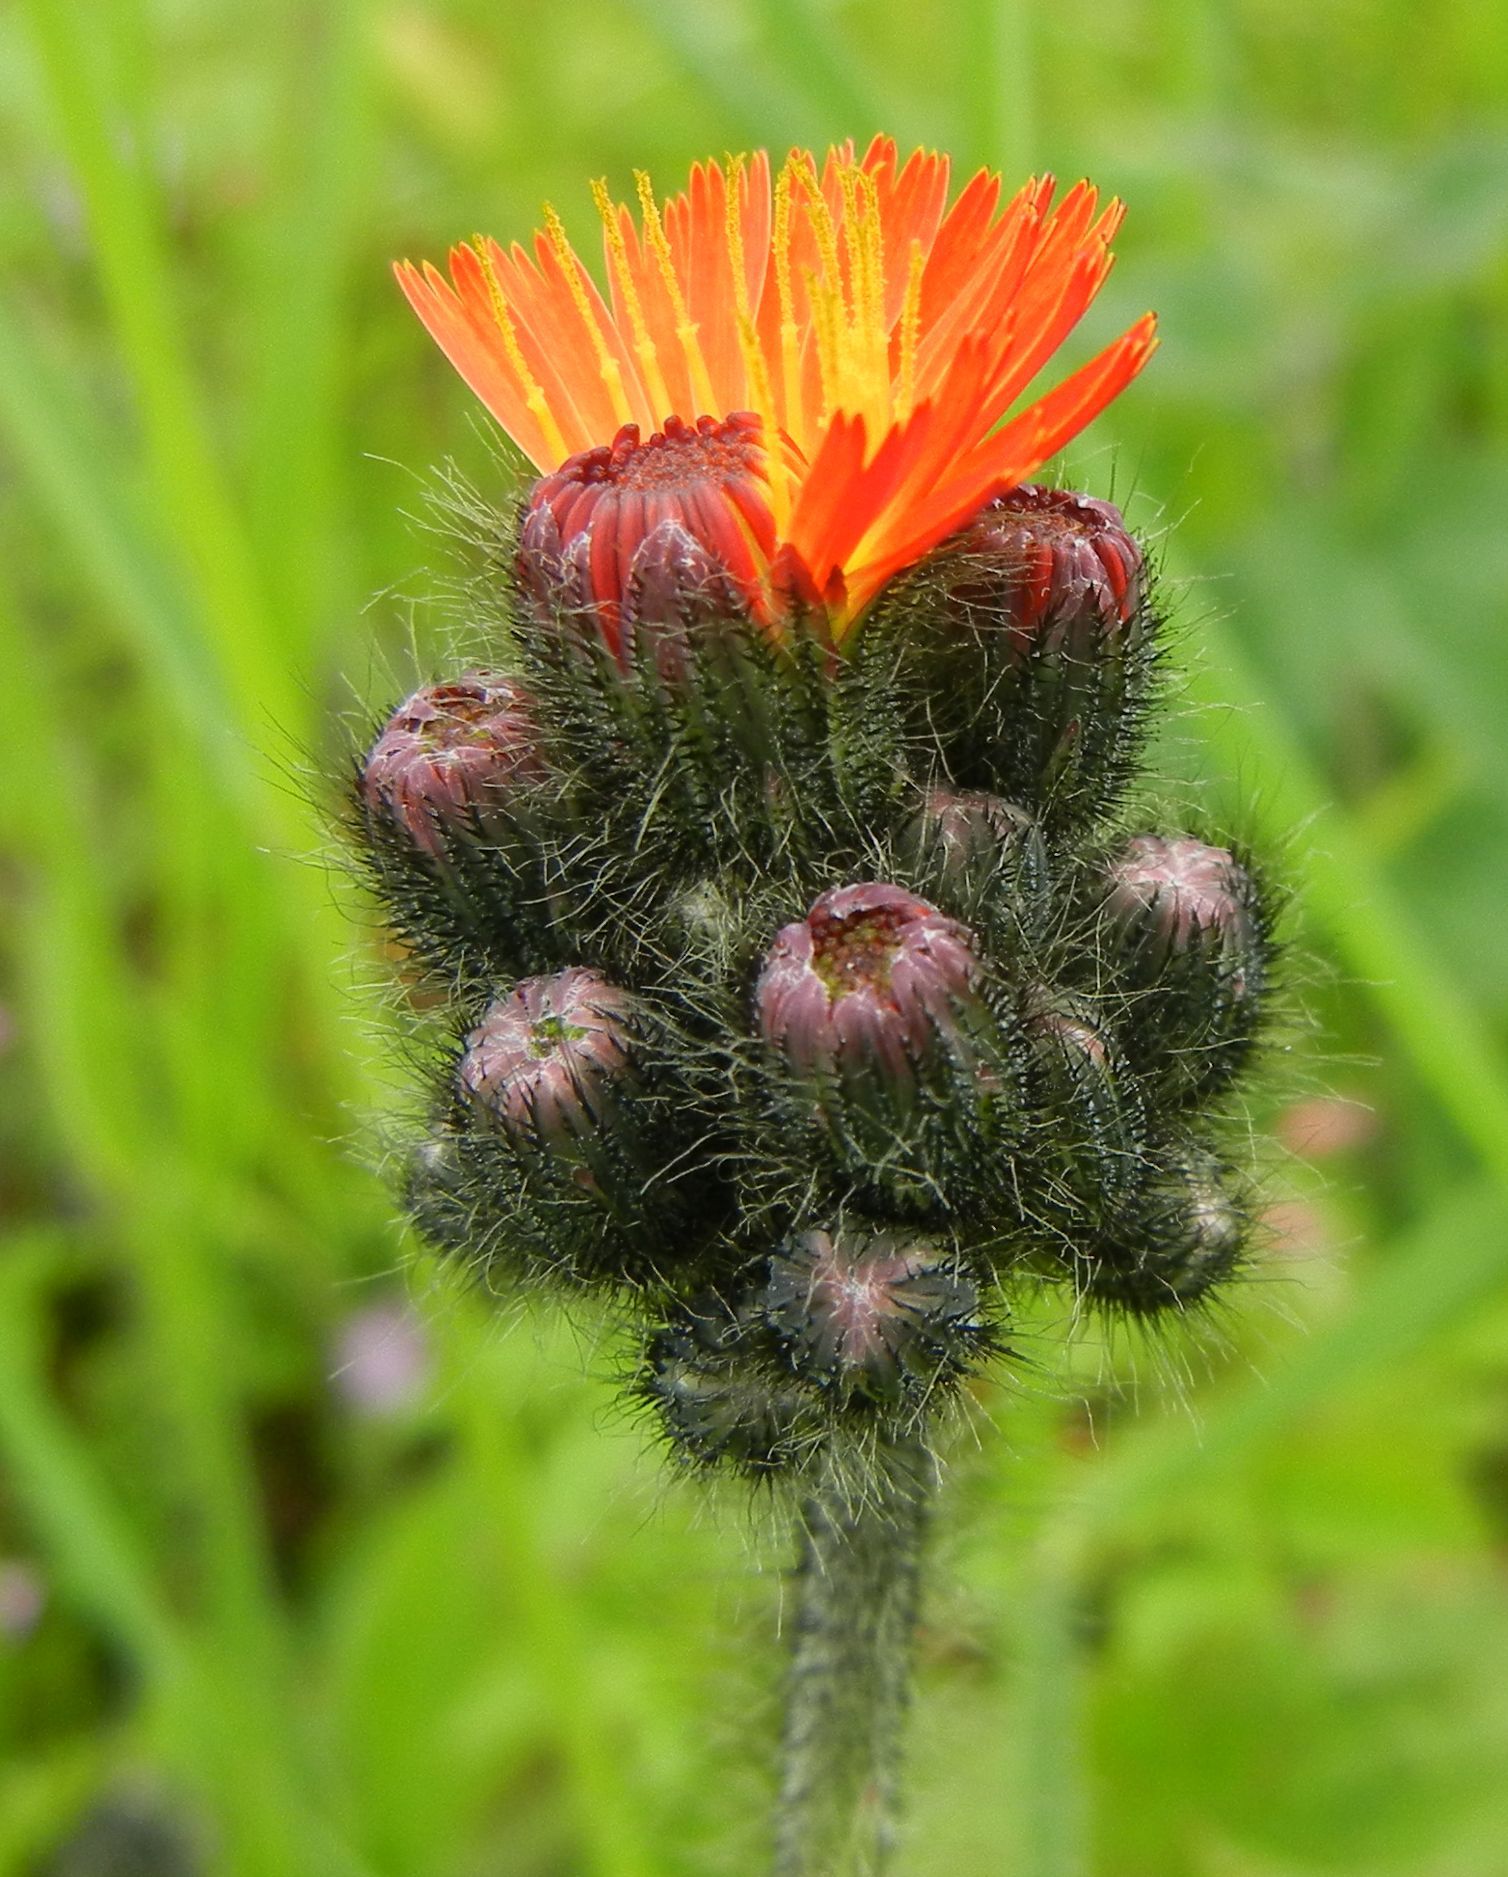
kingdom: Plantae
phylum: Tracheophyta
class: Magnoliopsida
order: Asterales
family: Asteraceae
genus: Pilosella
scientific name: Pilosella aurantiaca
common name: Fox-and-cubs
